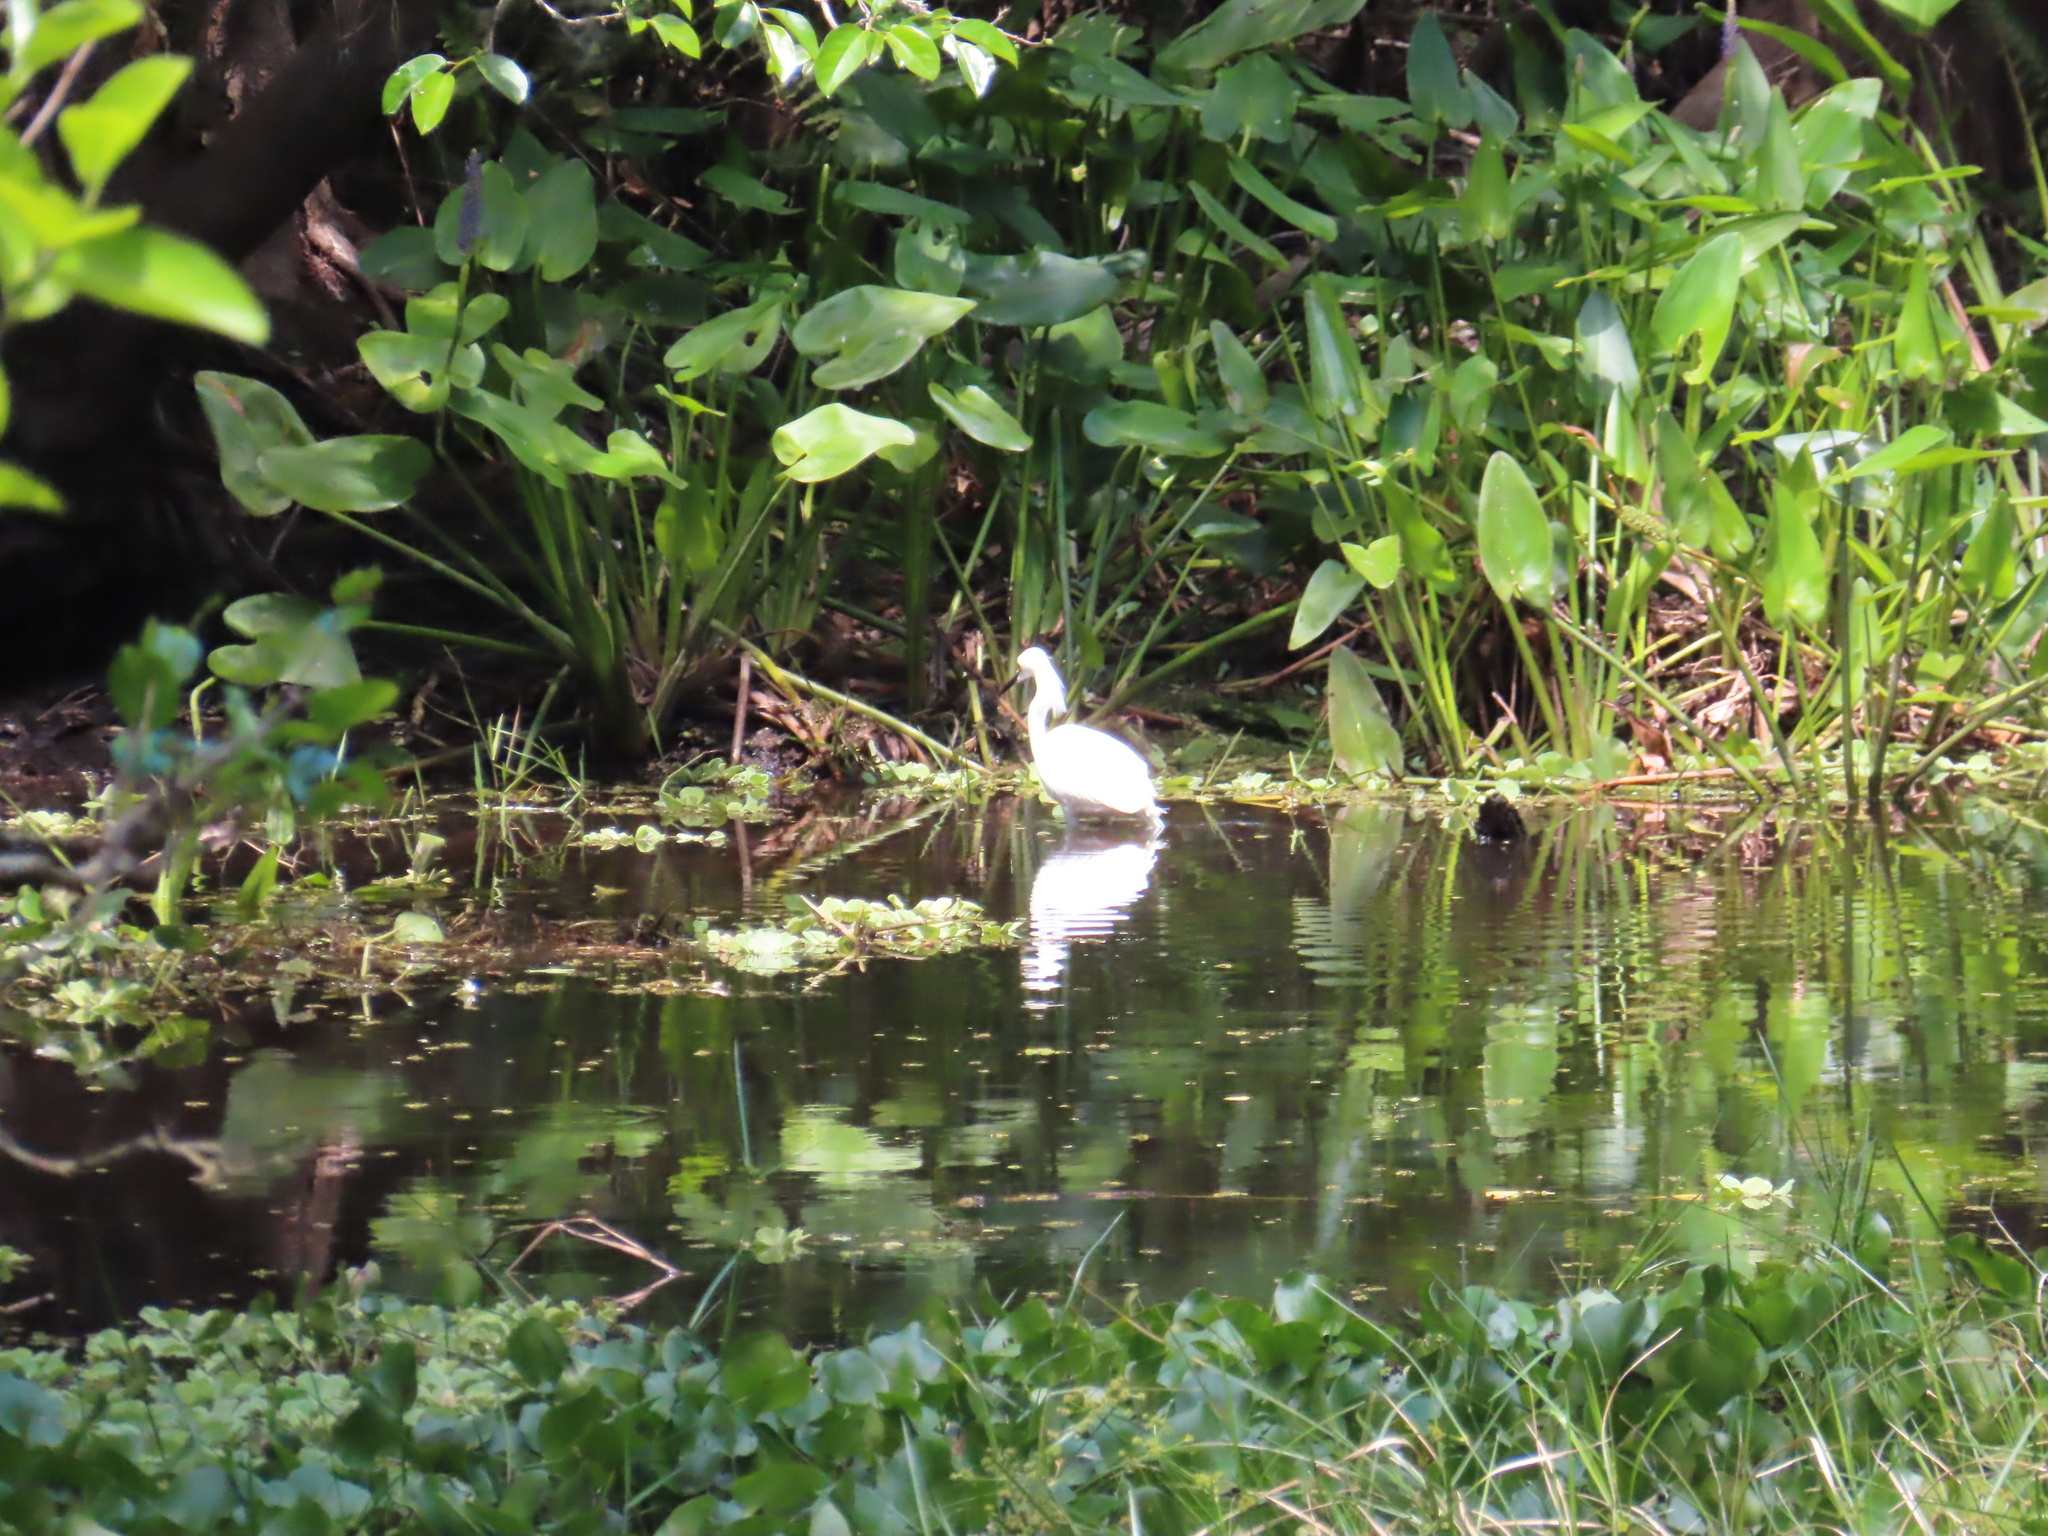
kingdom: Animalia
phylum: Chordata
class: Aves
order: Pelecaniformes
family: Ardeidae
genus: Egretta
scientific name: Egretta thula
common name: Snowy egret
